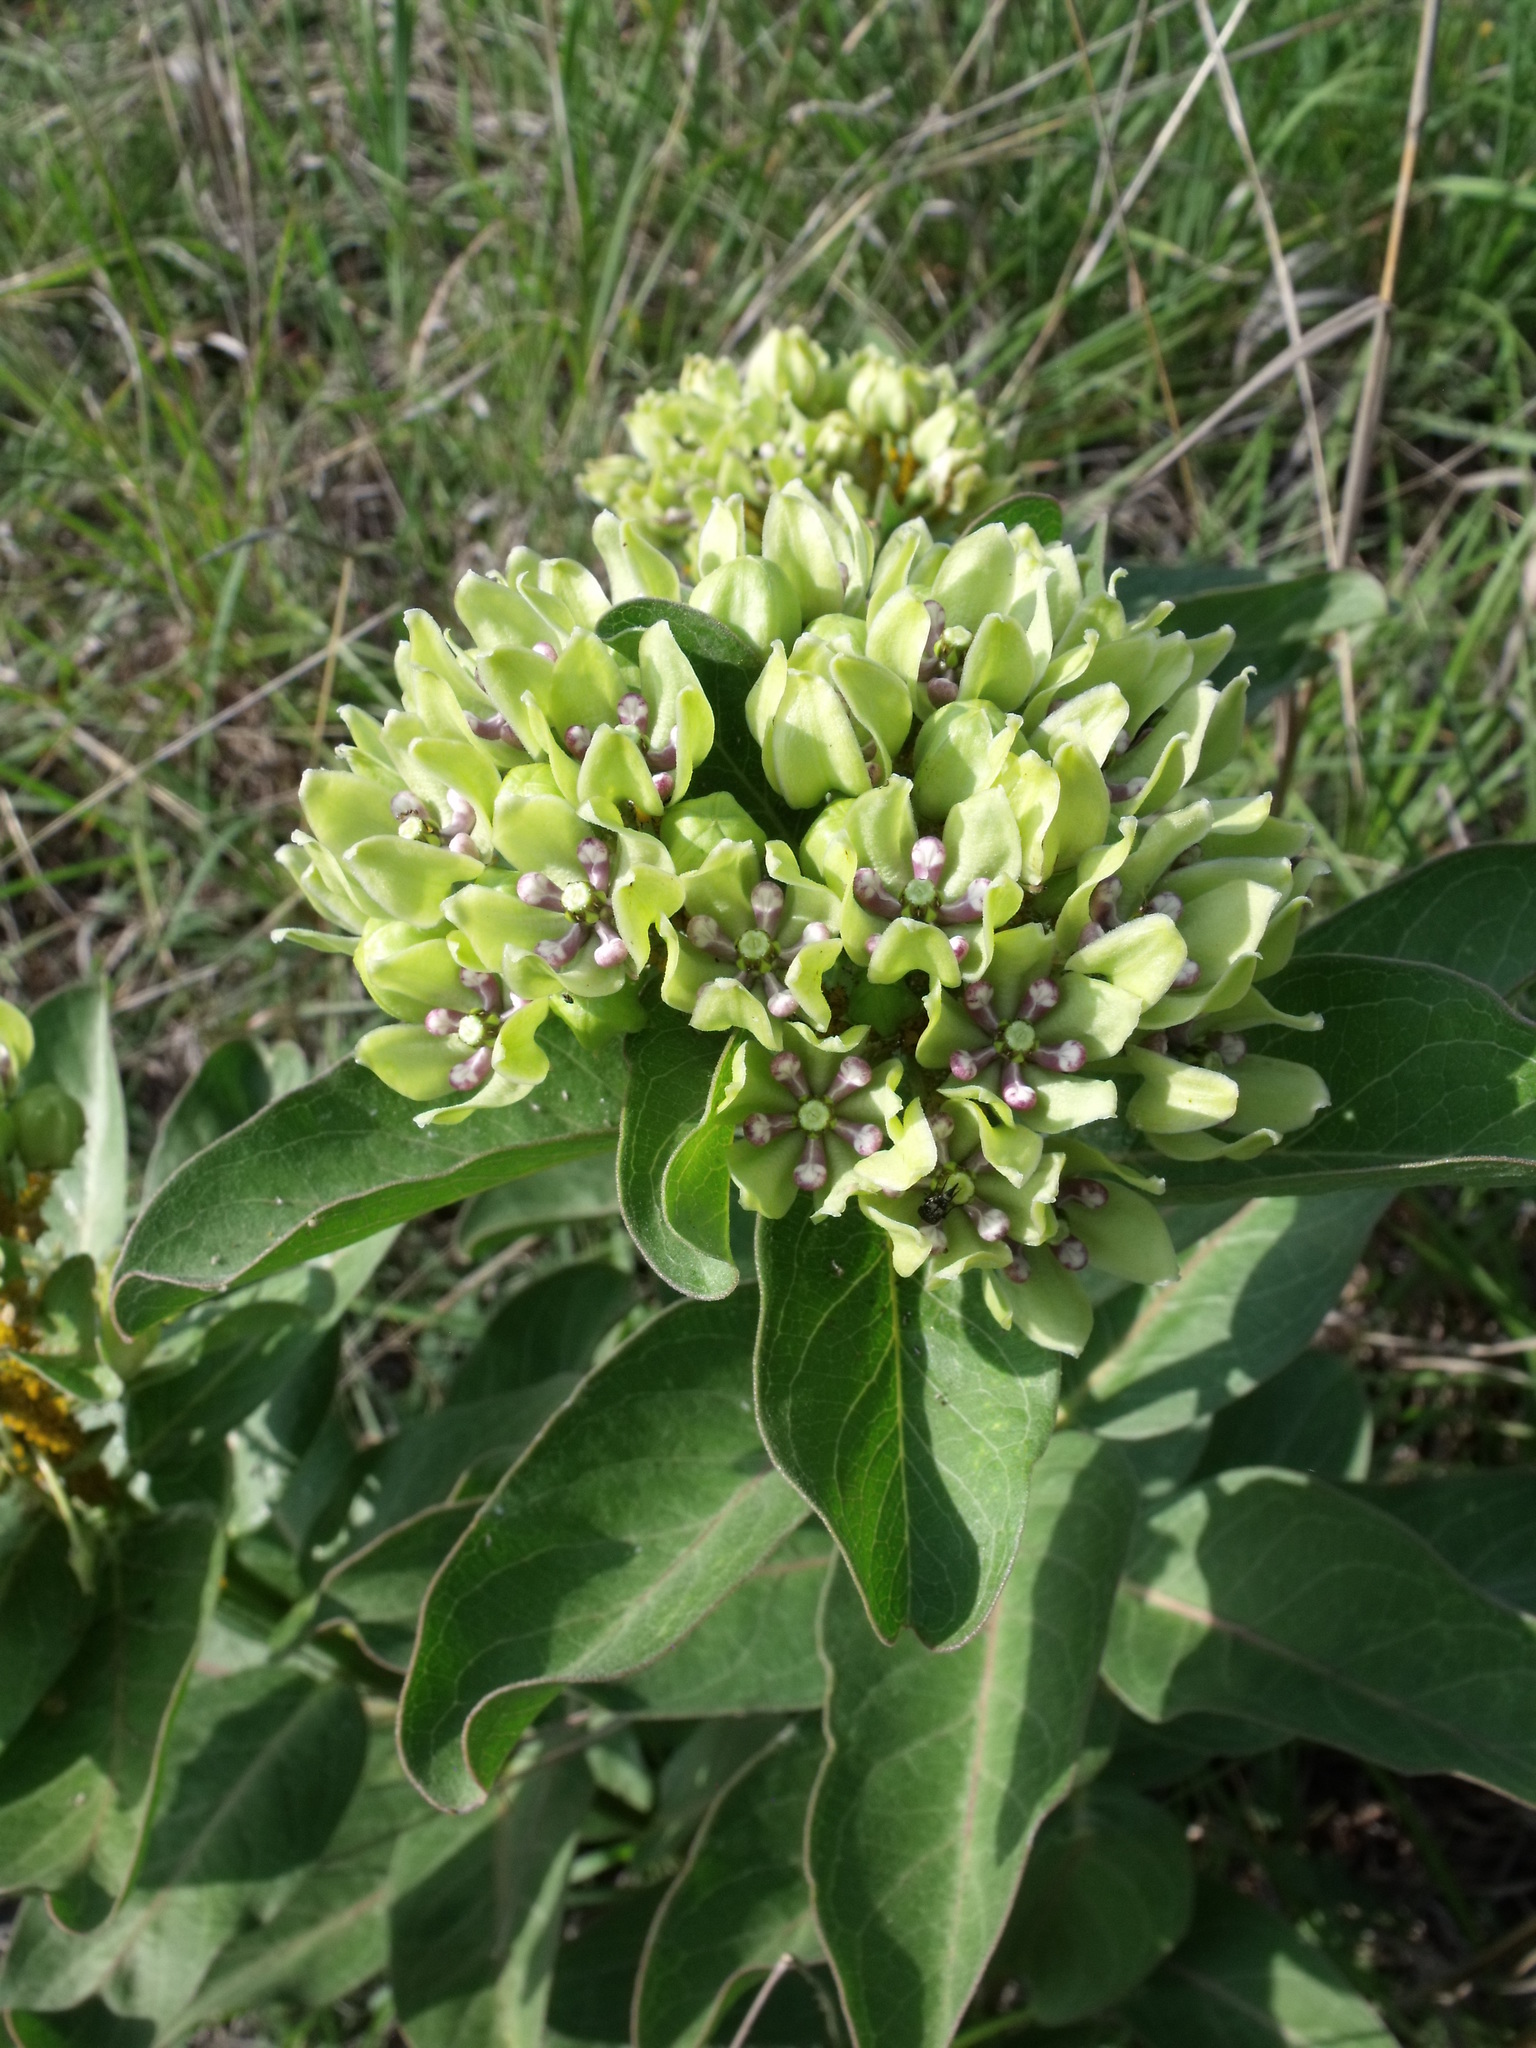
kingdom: Plantae
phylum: Tracheophyta
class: Magnoliopsida
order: Gentianales
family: Apocynaceae
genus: Asclepias
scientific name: Asclepias viridis
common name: Antelope-horns
